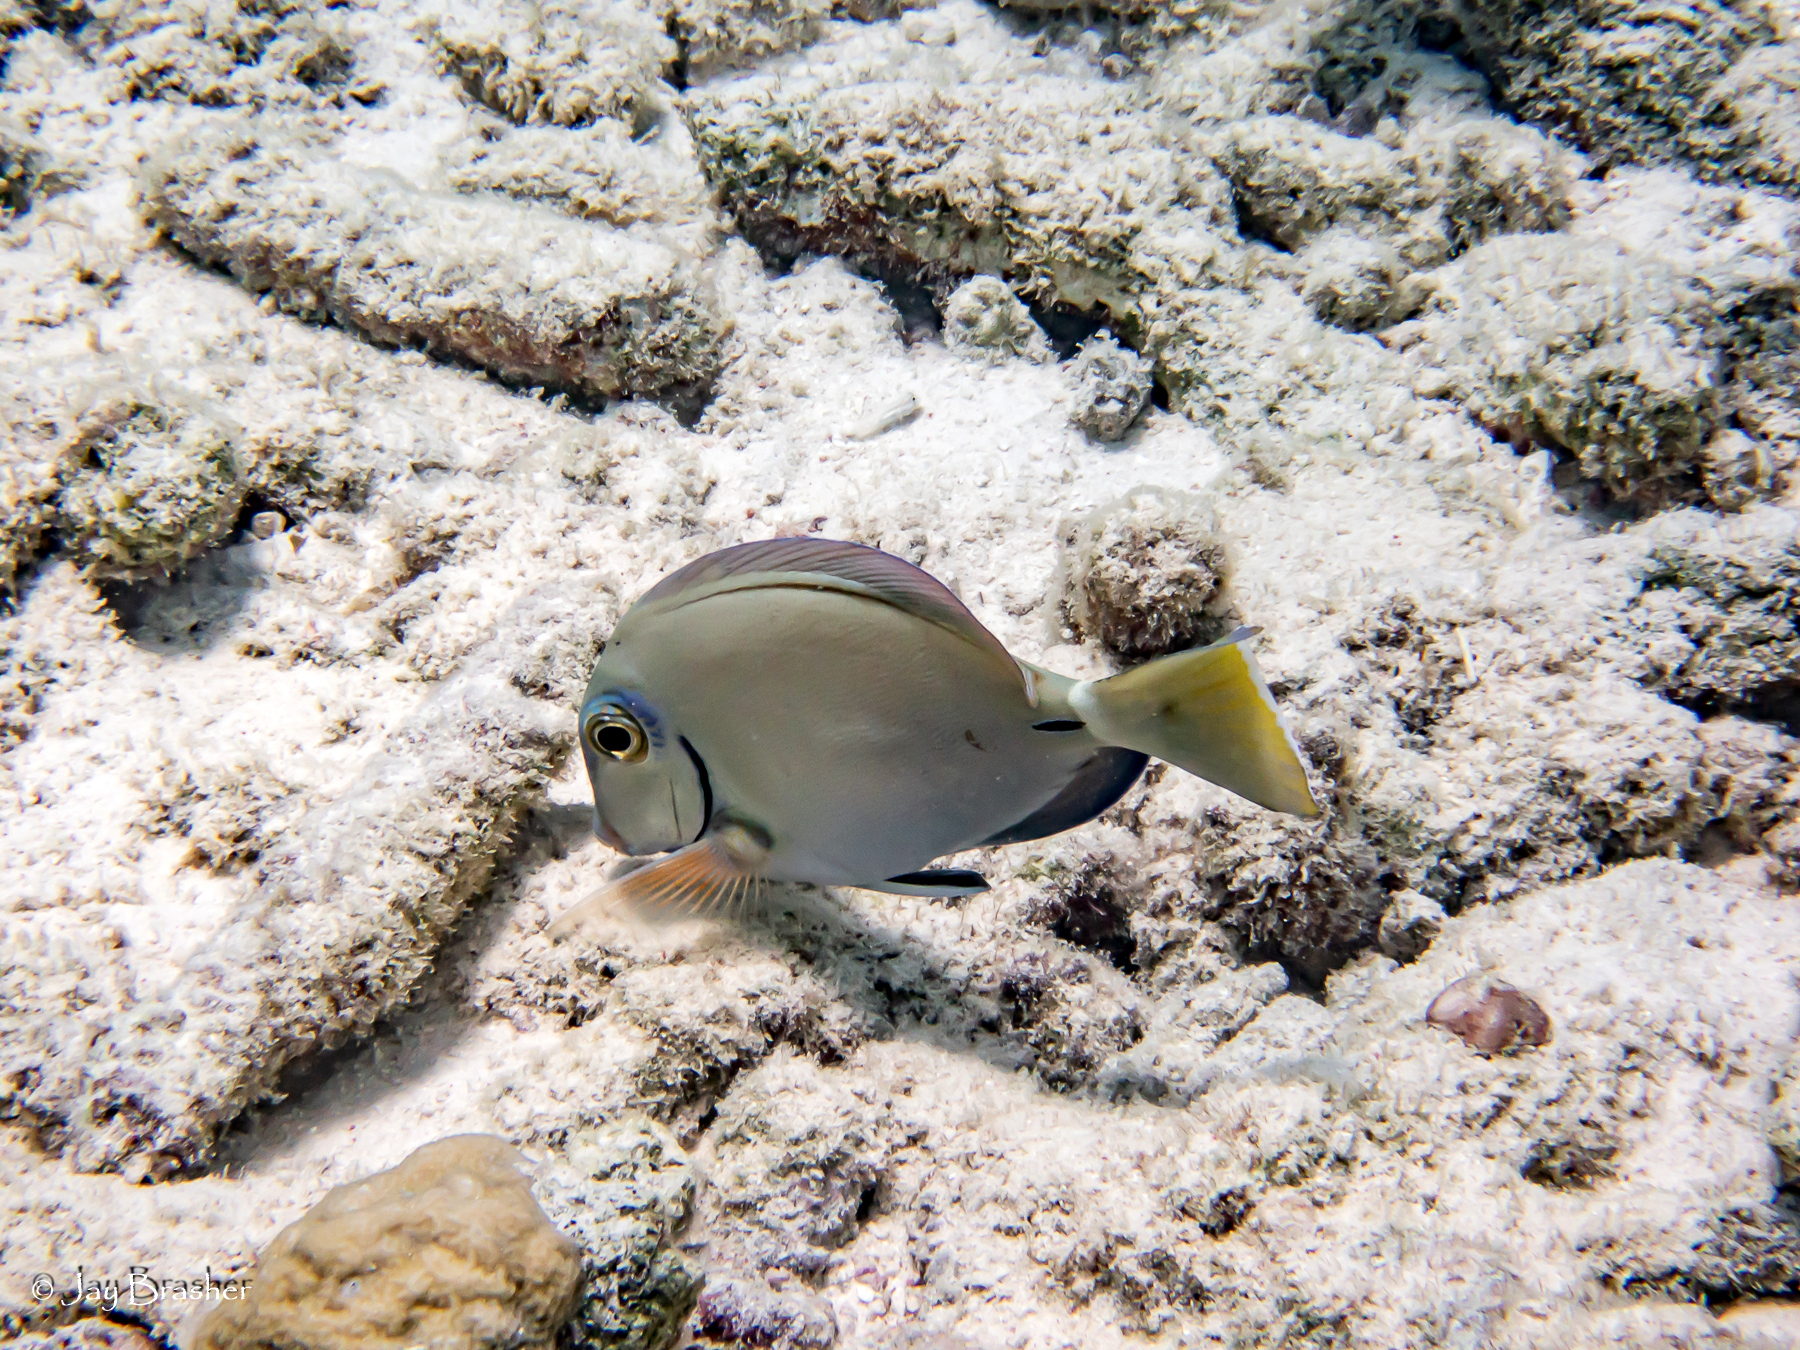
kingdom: Animalia
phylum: Chordata
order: Perciformes
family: Acanthuridae
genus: Acanthurus
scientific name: Acanthurus bahianus
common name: Ocean surgeon
